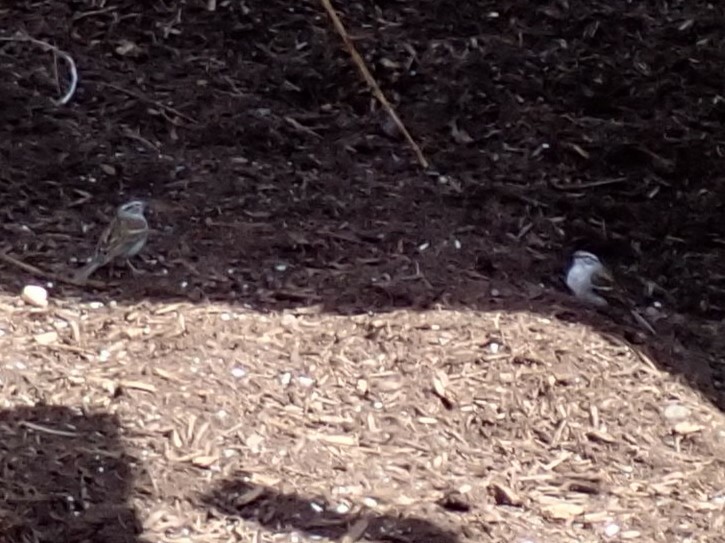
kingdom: Animalia
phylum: Chordata
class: Aves
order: Passeriformes
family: Passerellidae
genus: Spizella
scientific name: Spizella passerina
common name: Chipping sparrow
